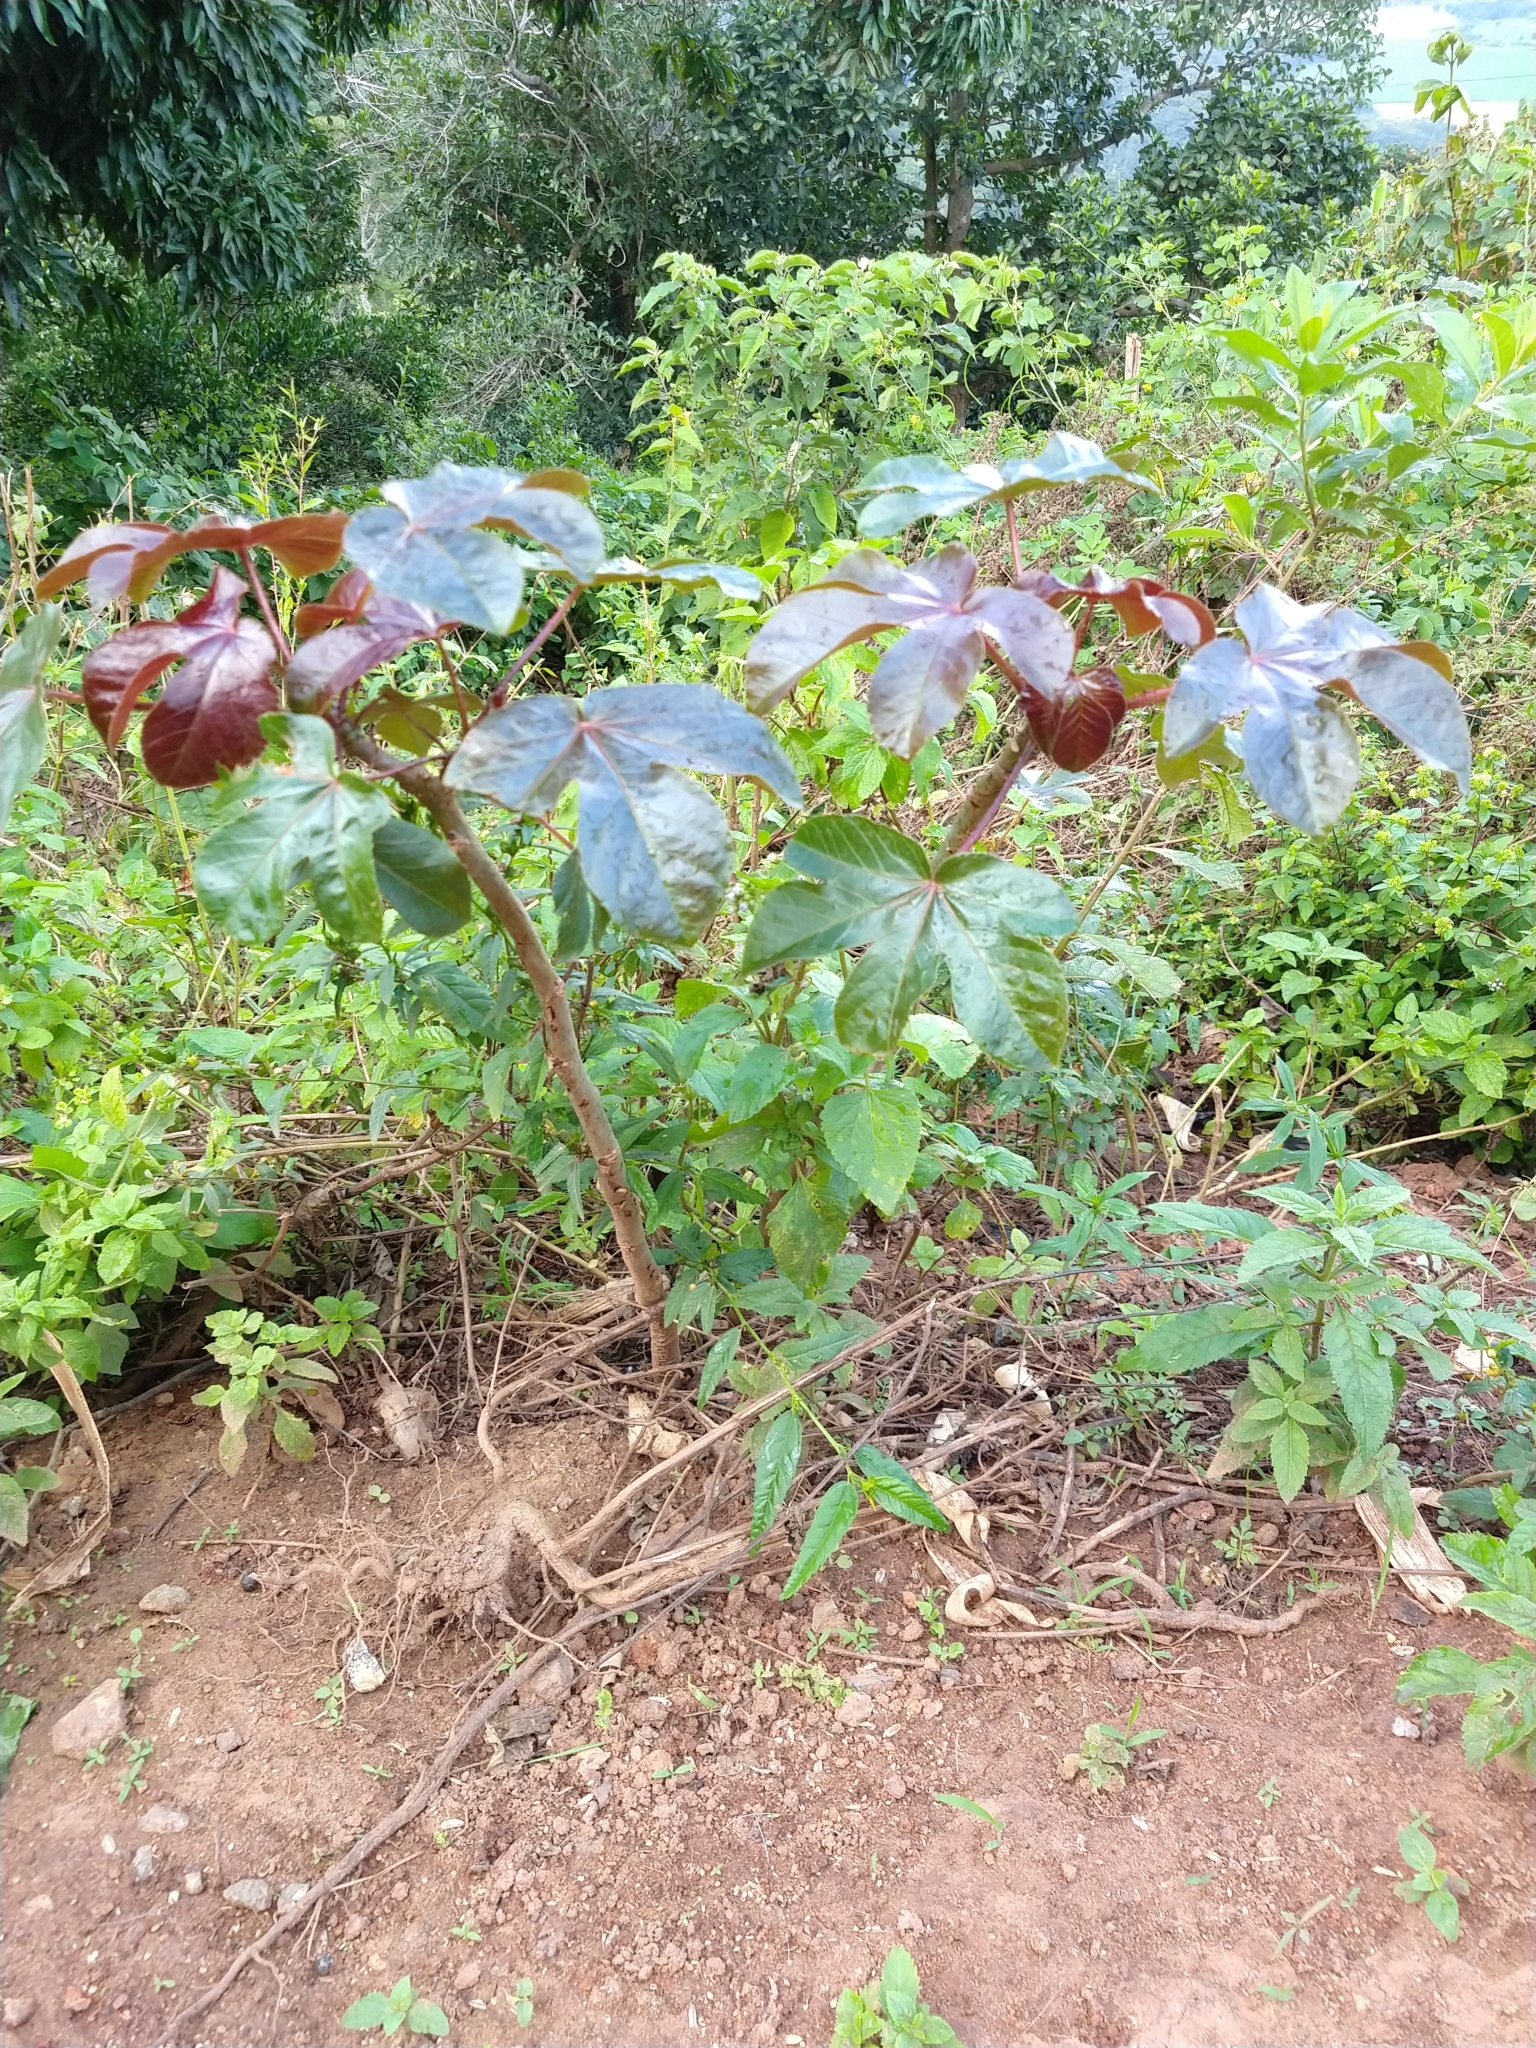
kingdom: Plantae
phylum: Tracheophyta
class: Magnoliopsida
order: Malpighiales
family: Euphorbiaceae
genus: Jatropha
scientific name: Jatropha gossypiifolia
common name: Bellyache bush
